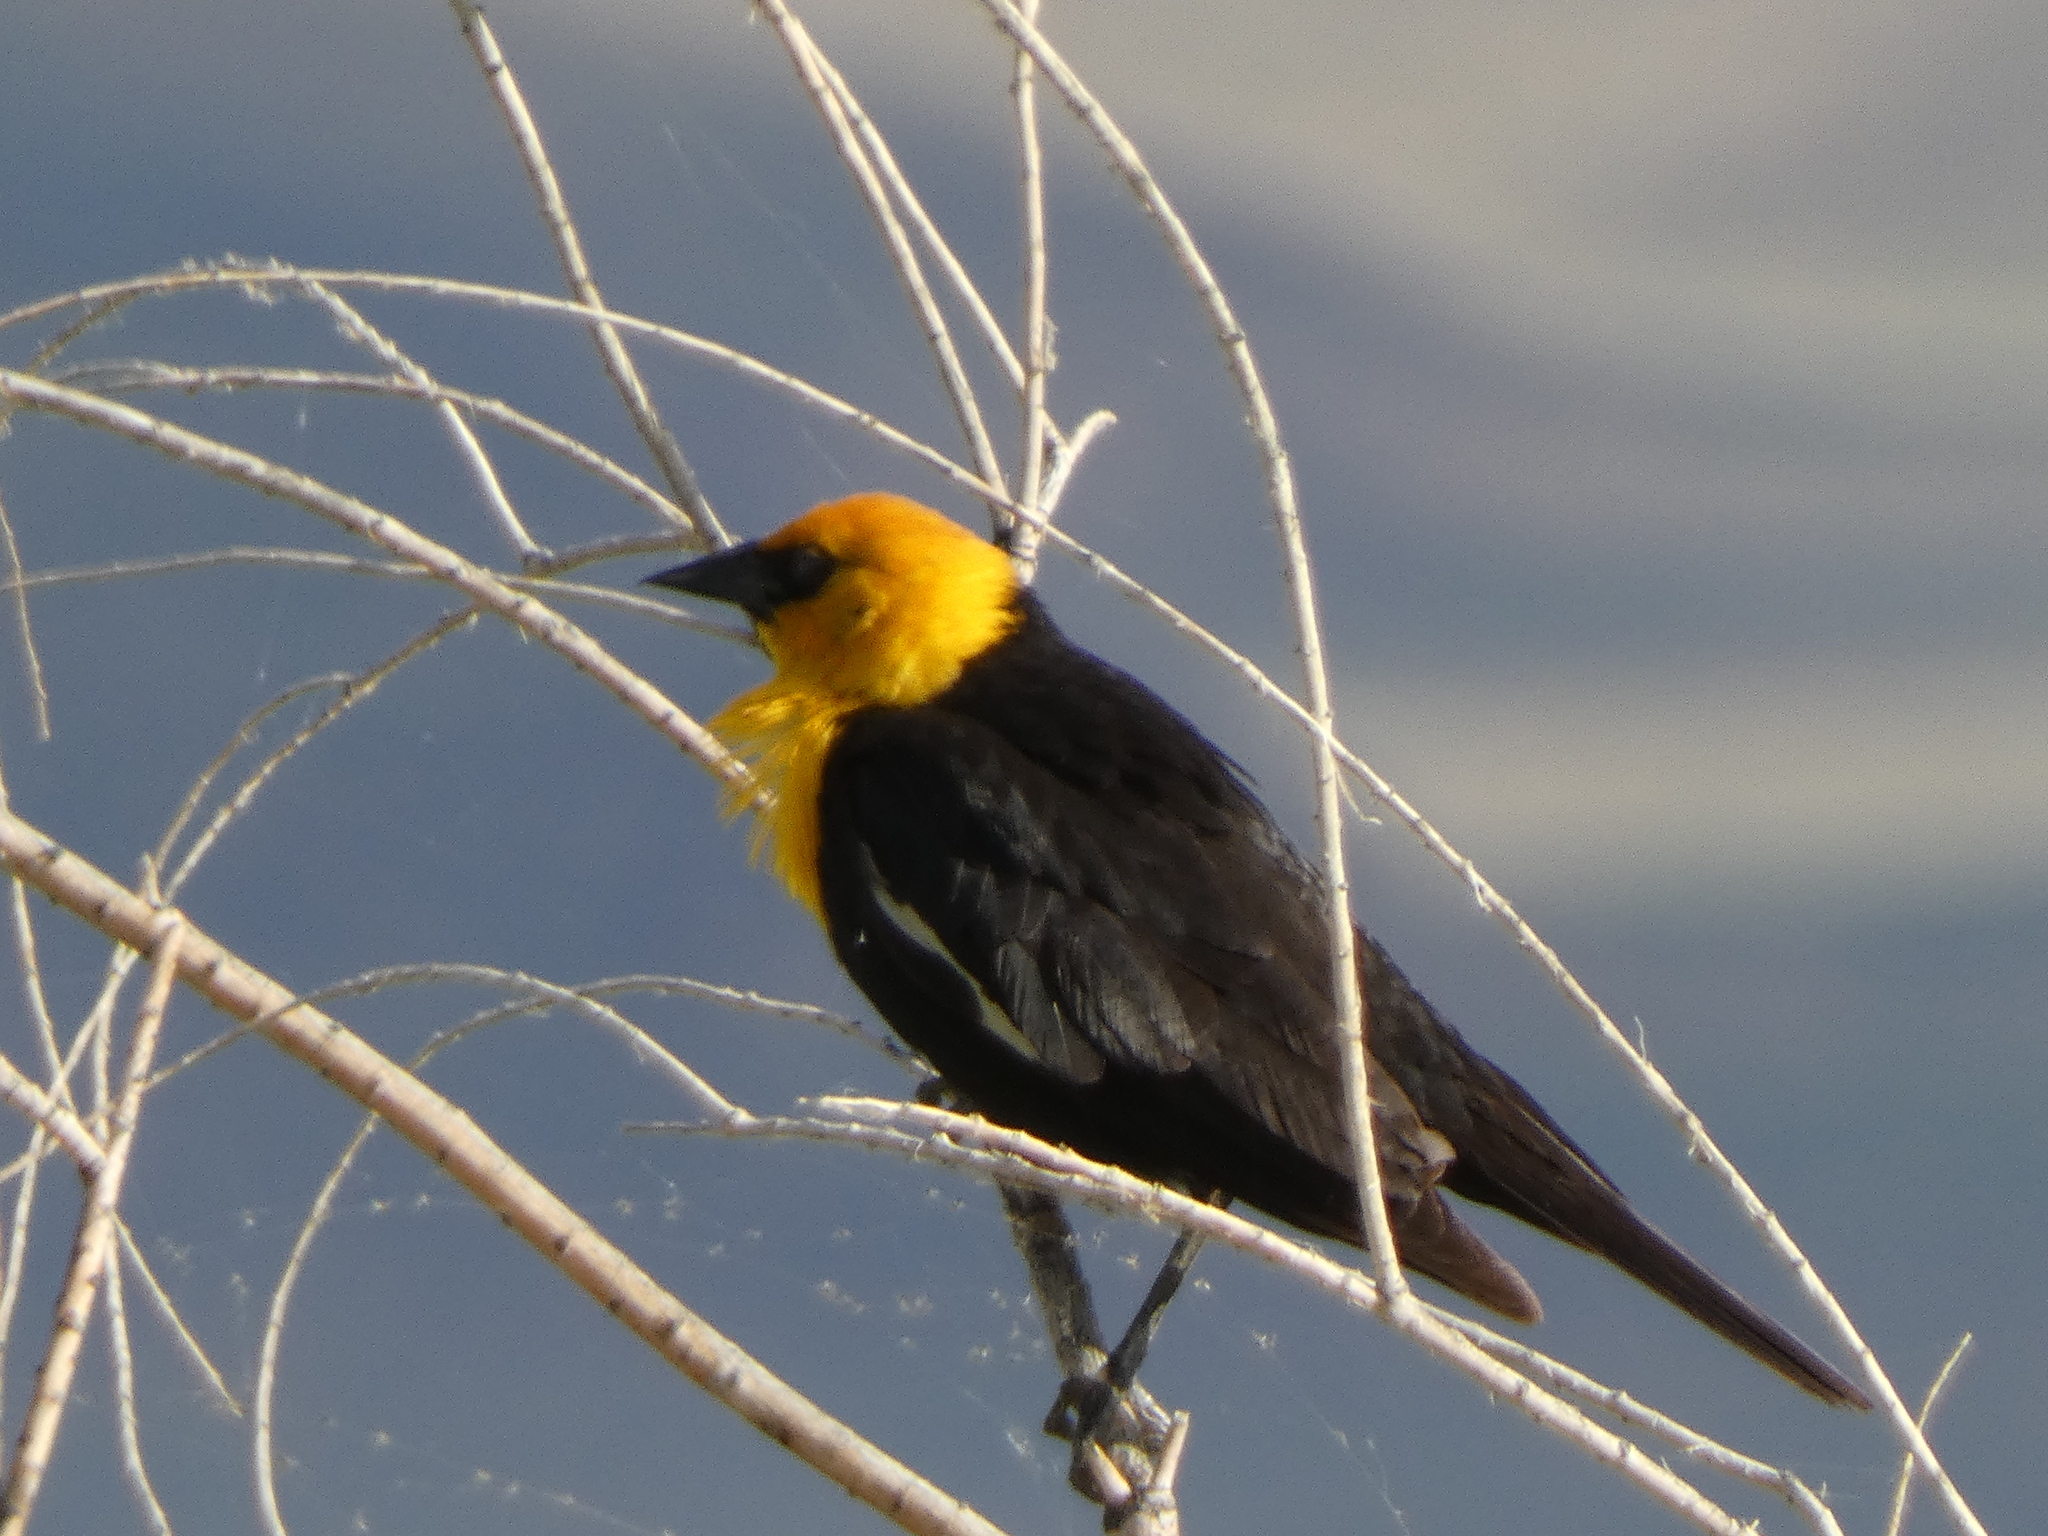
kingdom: Animalia
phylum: Chordata
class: Aves
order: Passeriformes
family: Icteridae
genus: Xanthocephalus
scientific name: Xanthocephalus xanthocephalus
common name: Yellow-headed blackbird
